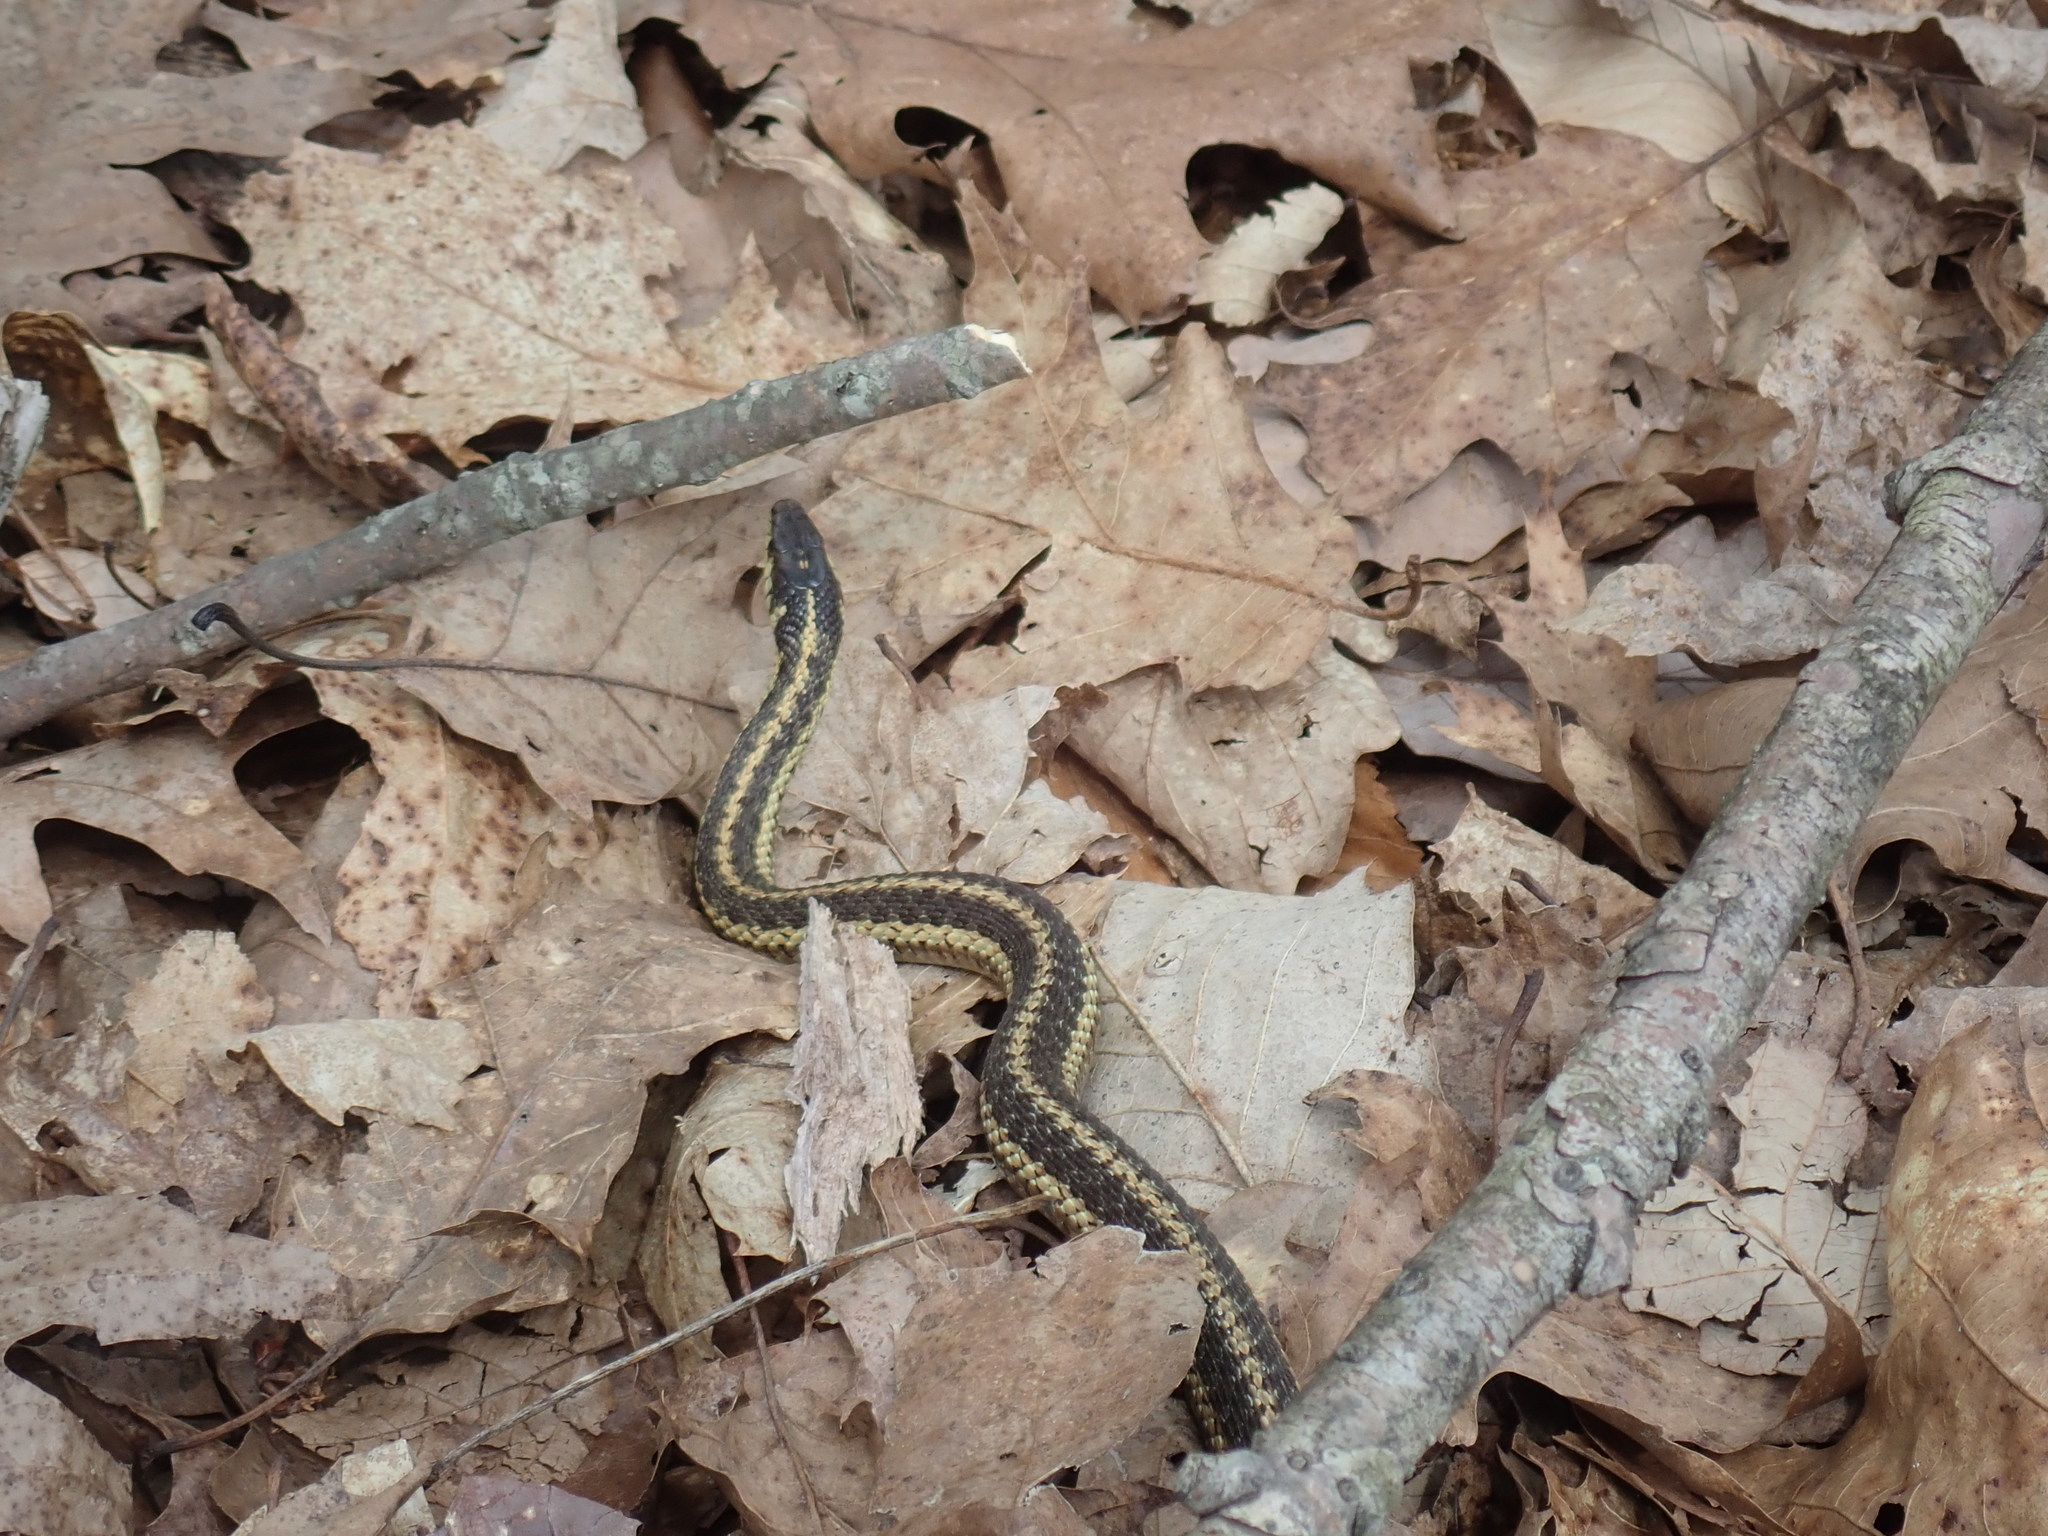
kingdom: Animalia
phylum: Chordata
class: Squamata
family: Colubridae
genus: Thamnophis
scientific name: Thamnophis sirtalis
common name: Common garter snake
